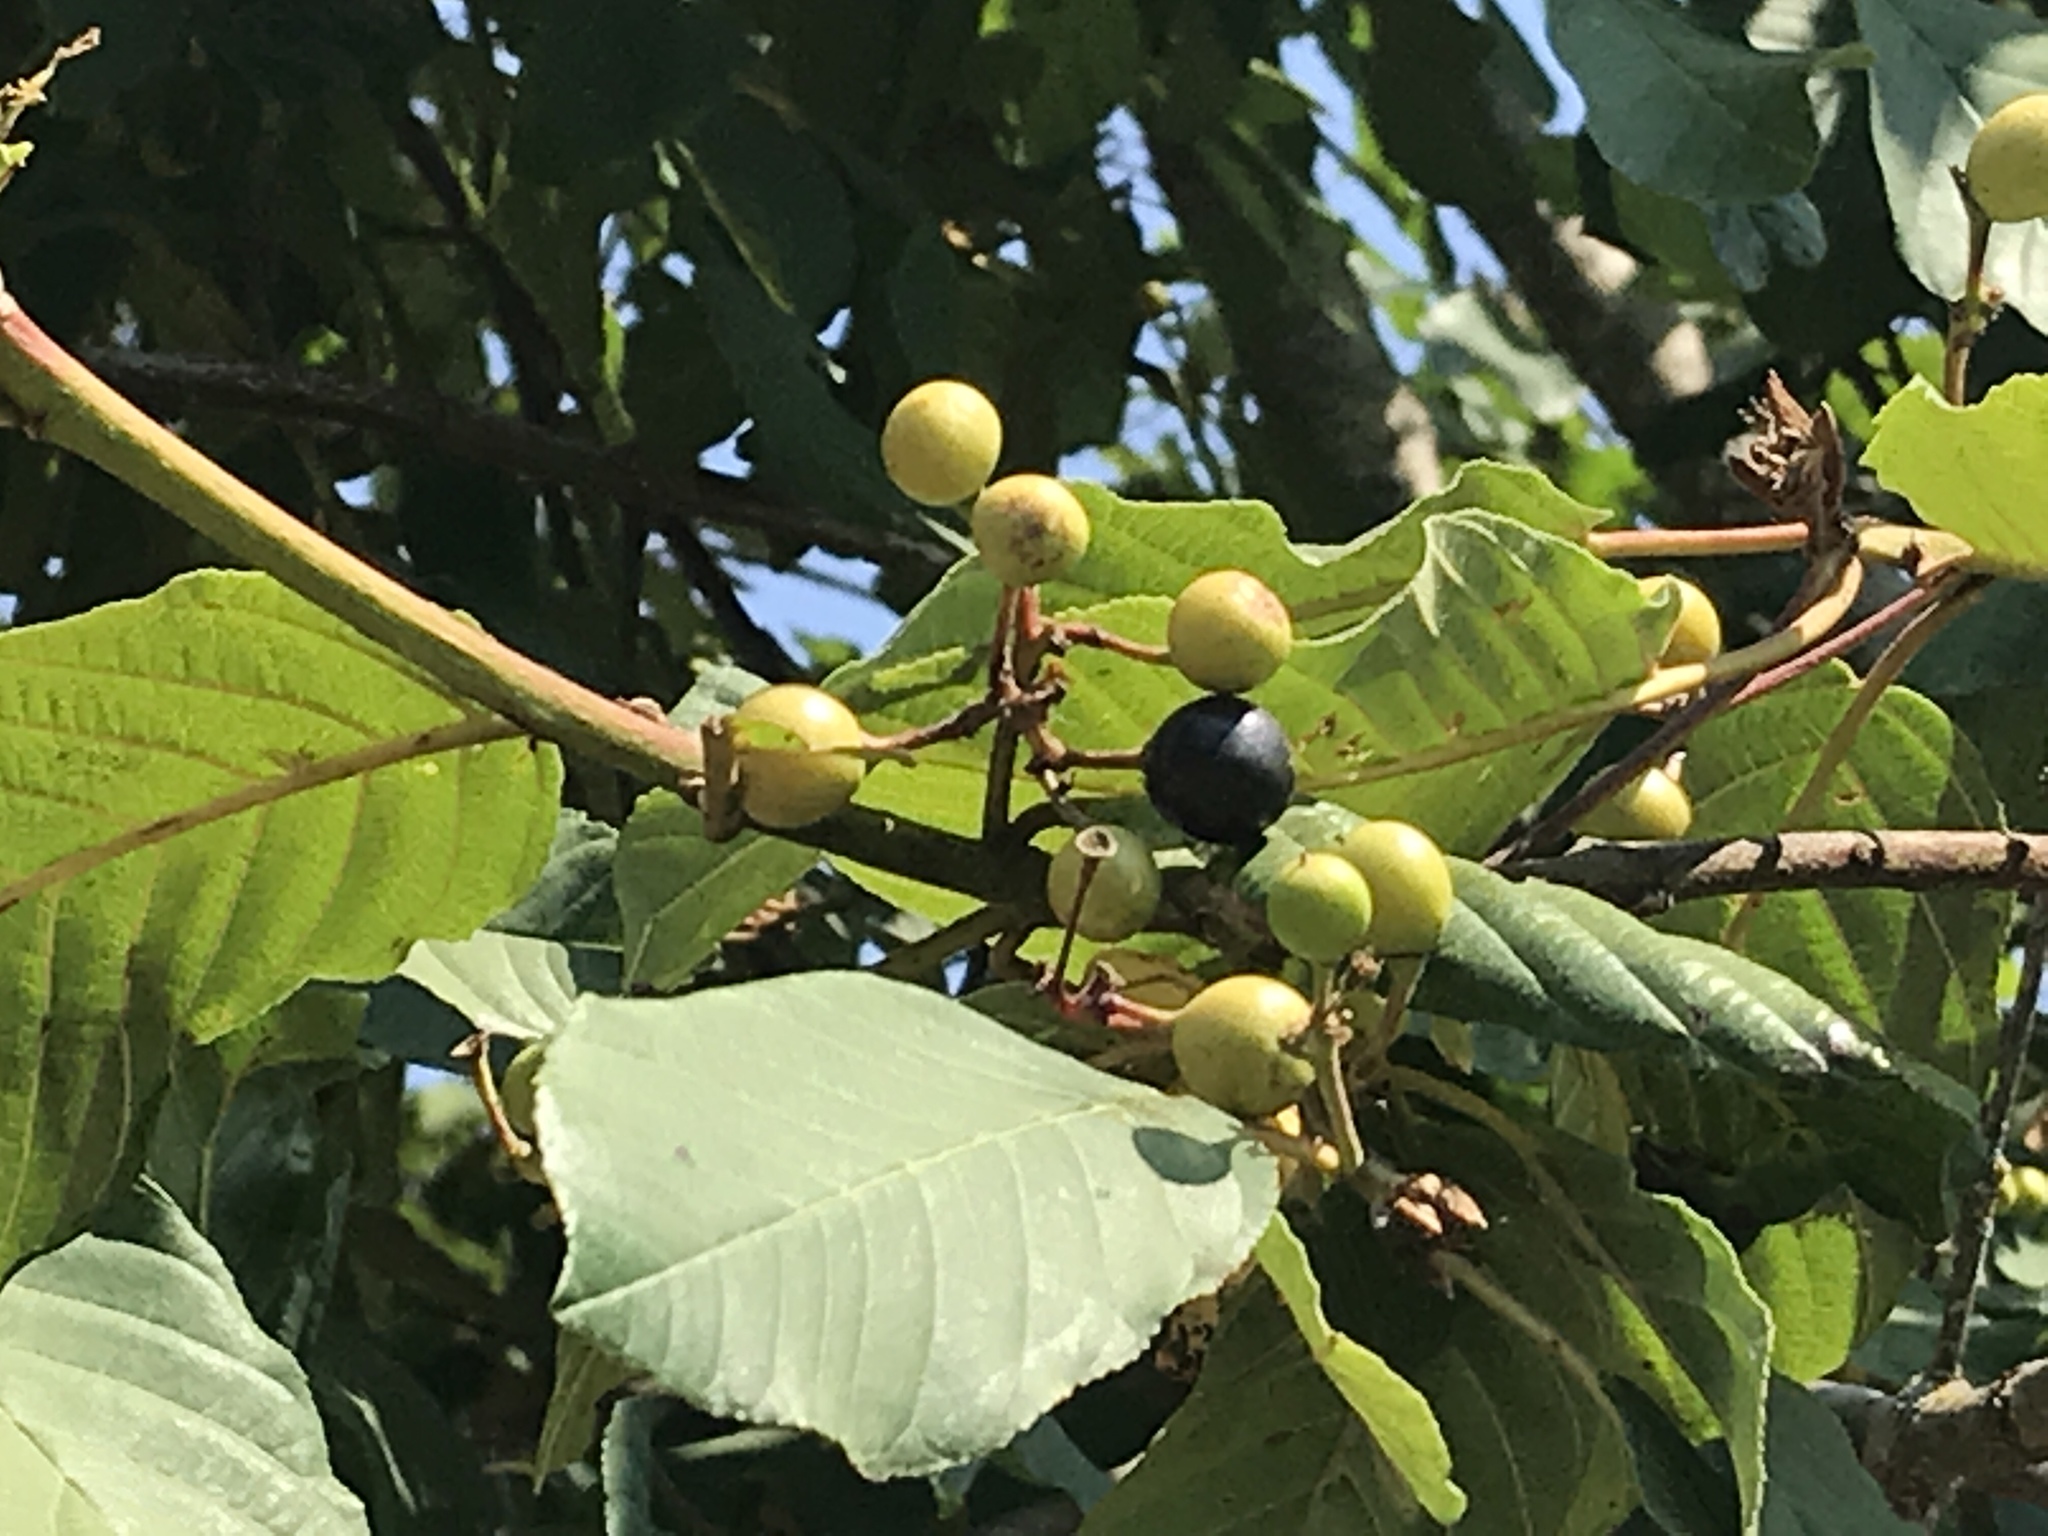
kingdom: Plantae
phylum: Tracheophyta
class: Magnoliopsida
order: Rosales
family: Rhamnaceae
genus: Frangula
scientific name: Frangula purshiana
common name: Cascara buckthorn
